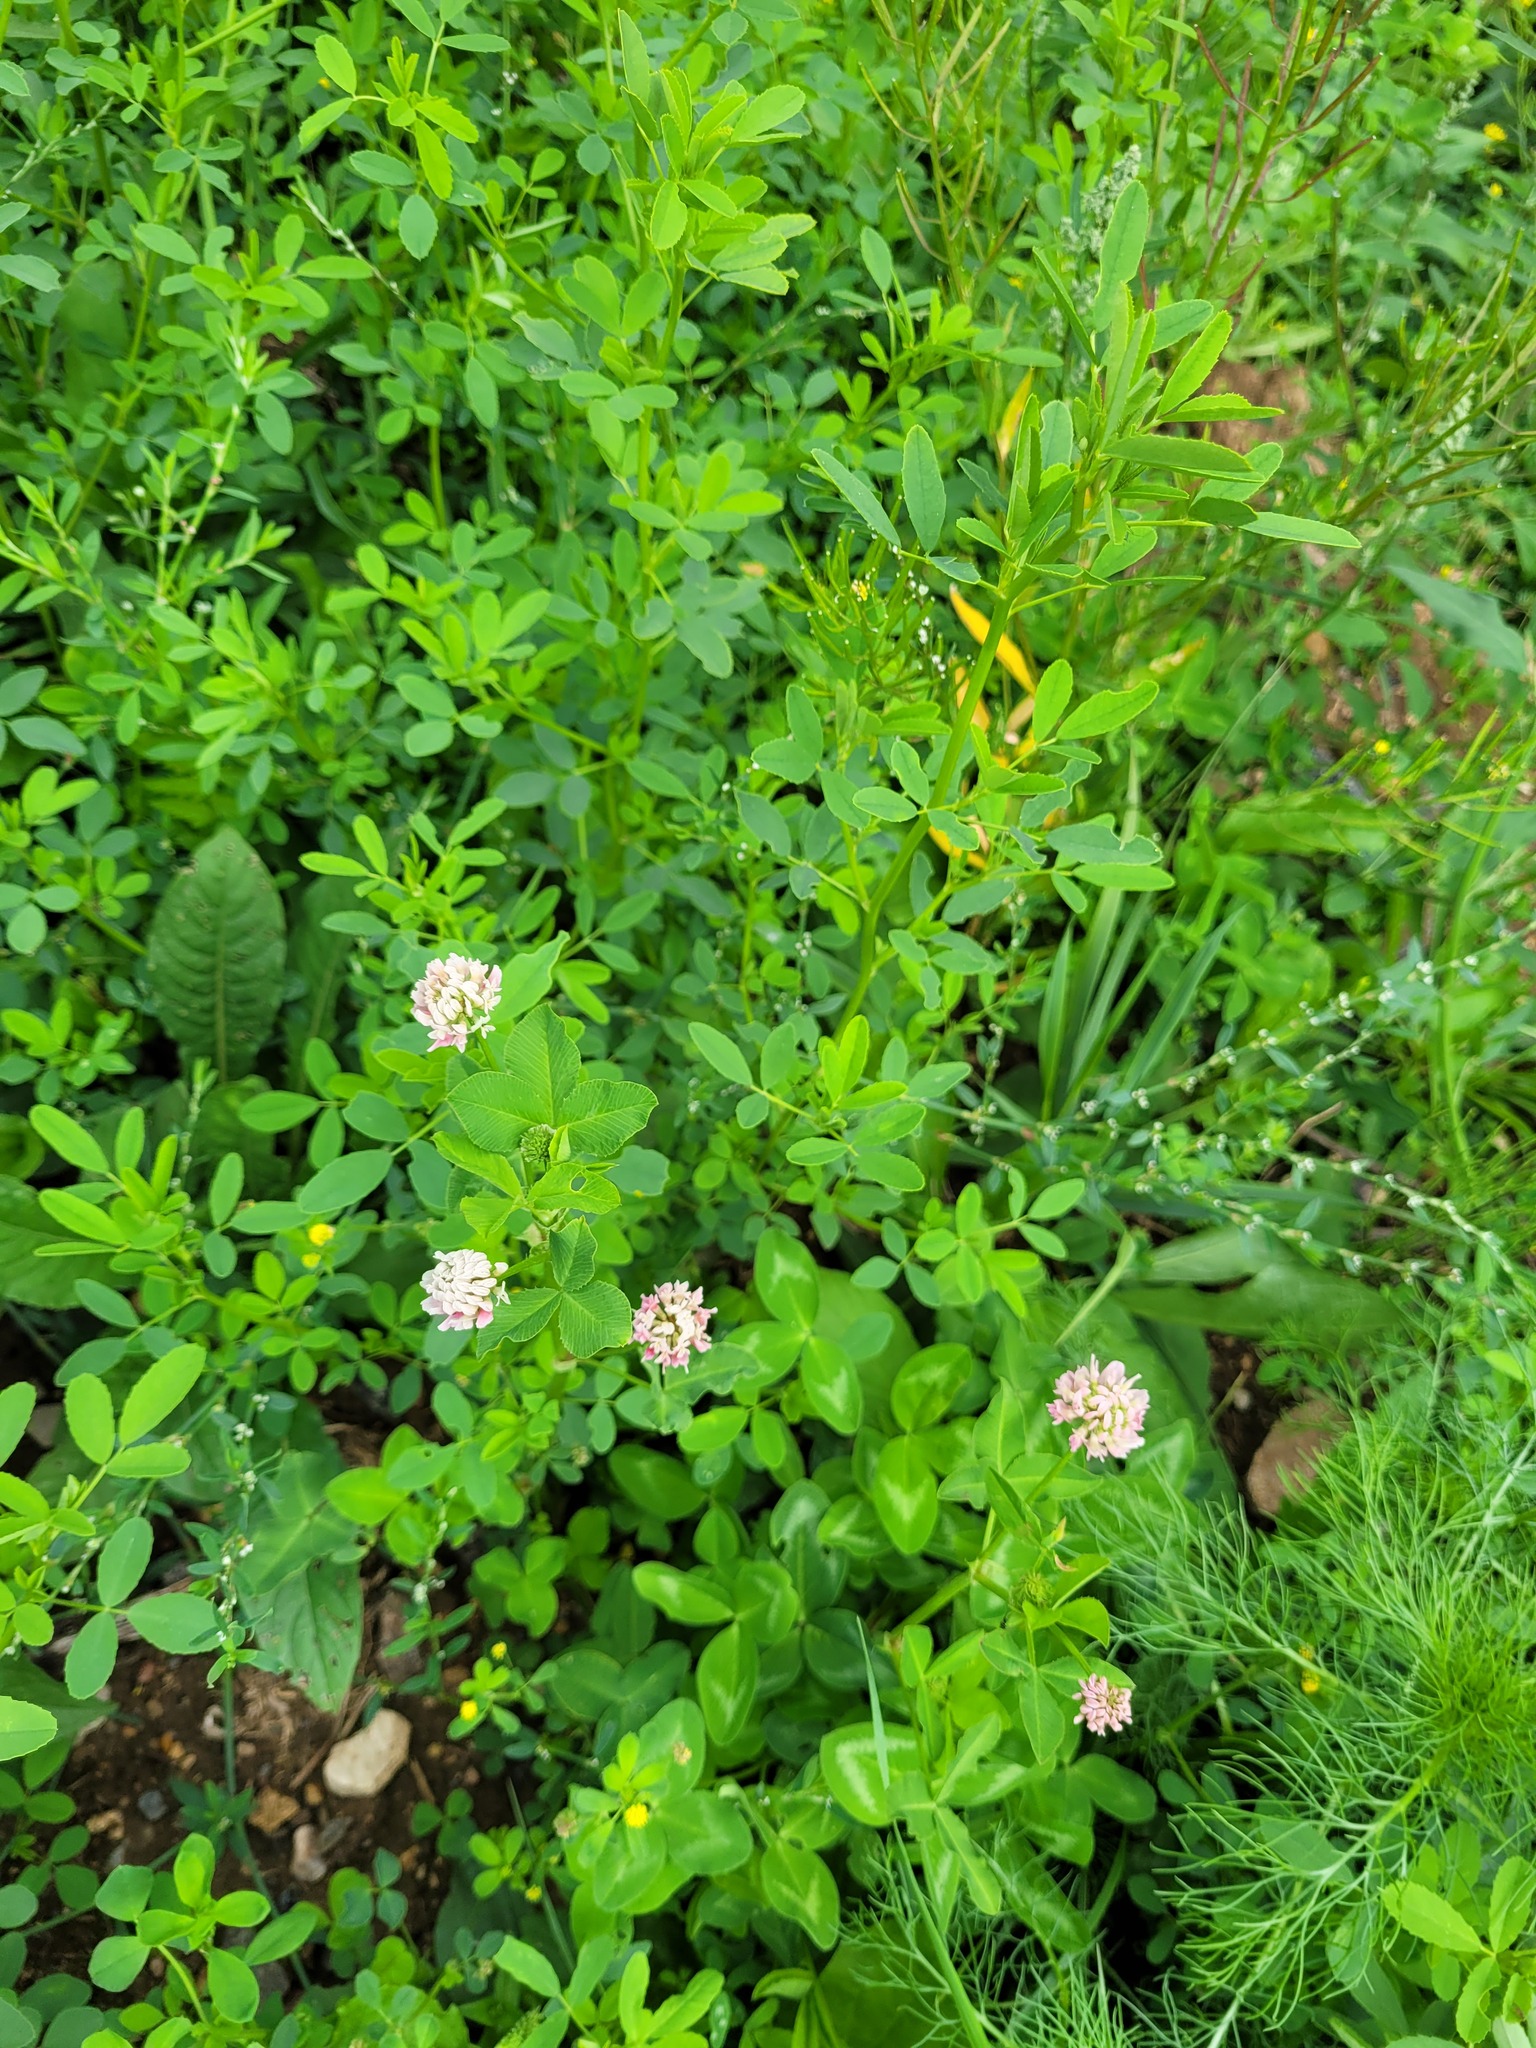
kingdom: Plantae
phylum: Tracheophyta
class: Magnoliopsida
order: Fabales
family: Fabaceae
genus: Trifolium
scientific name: Trifolium hybridum
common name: Alsike clover
